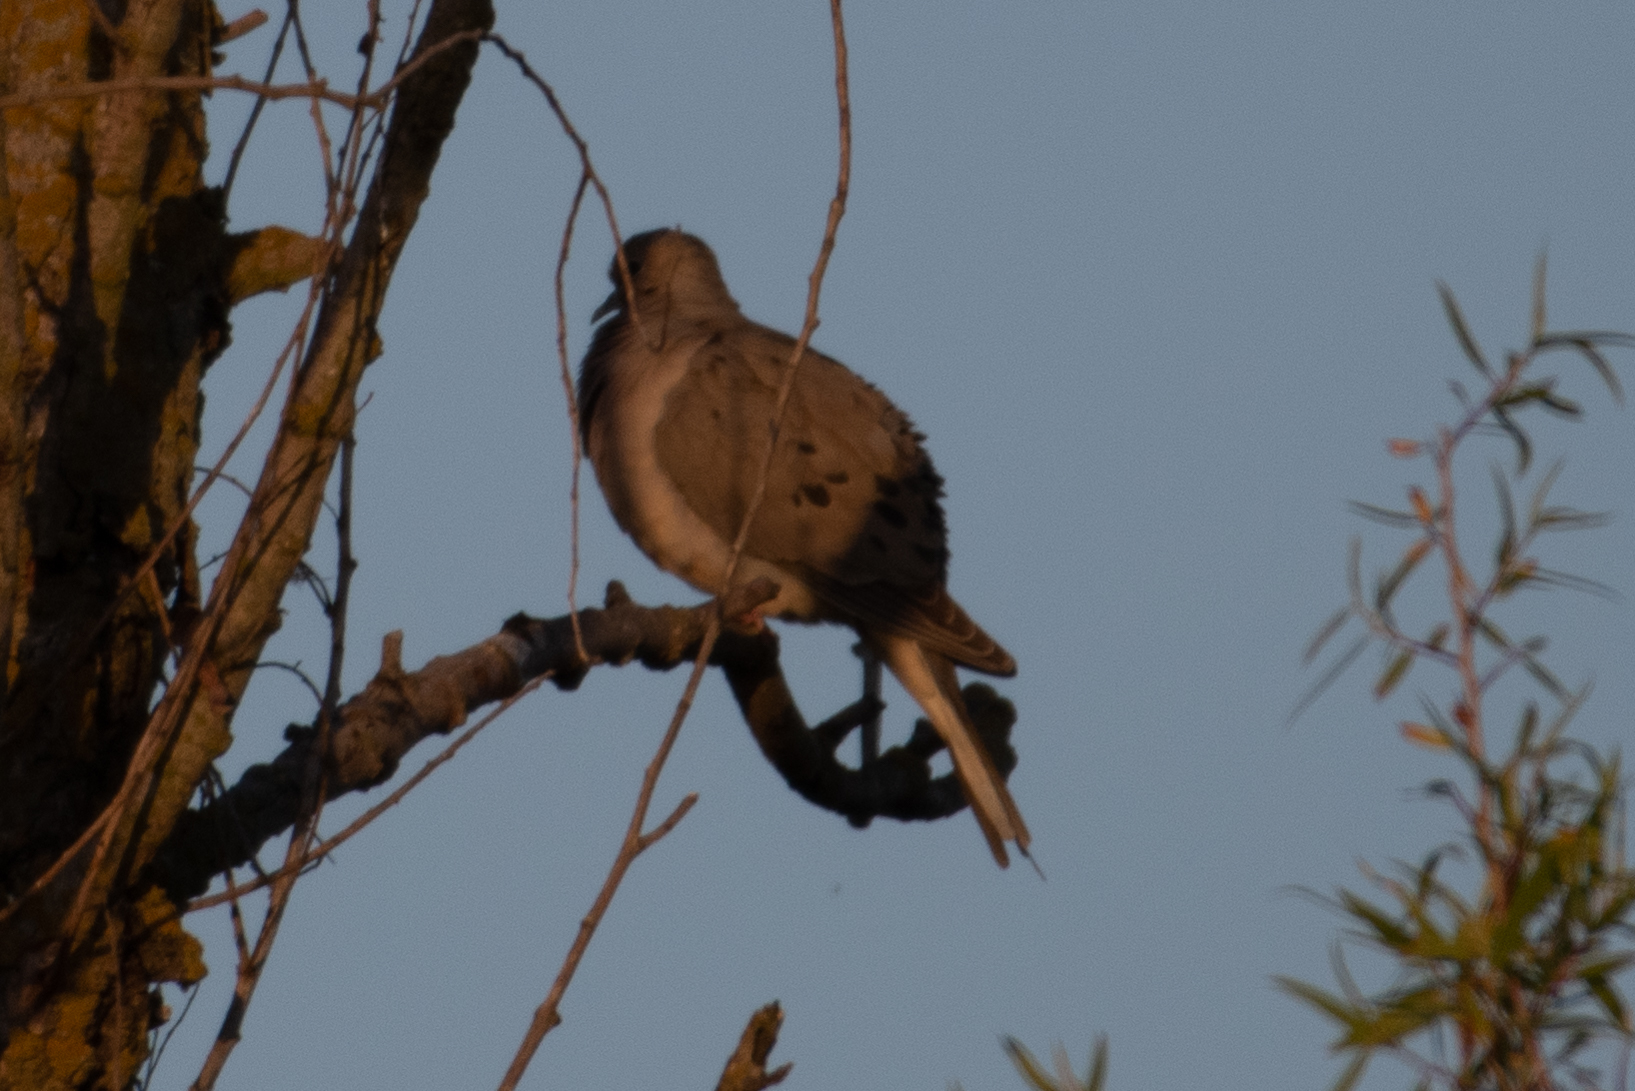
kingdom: Animalia
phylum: Chordata
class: Aves
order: Columbiformes
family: Columbidae
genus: Zenaida
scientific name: Zenaida macroura
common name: Mourning dove
